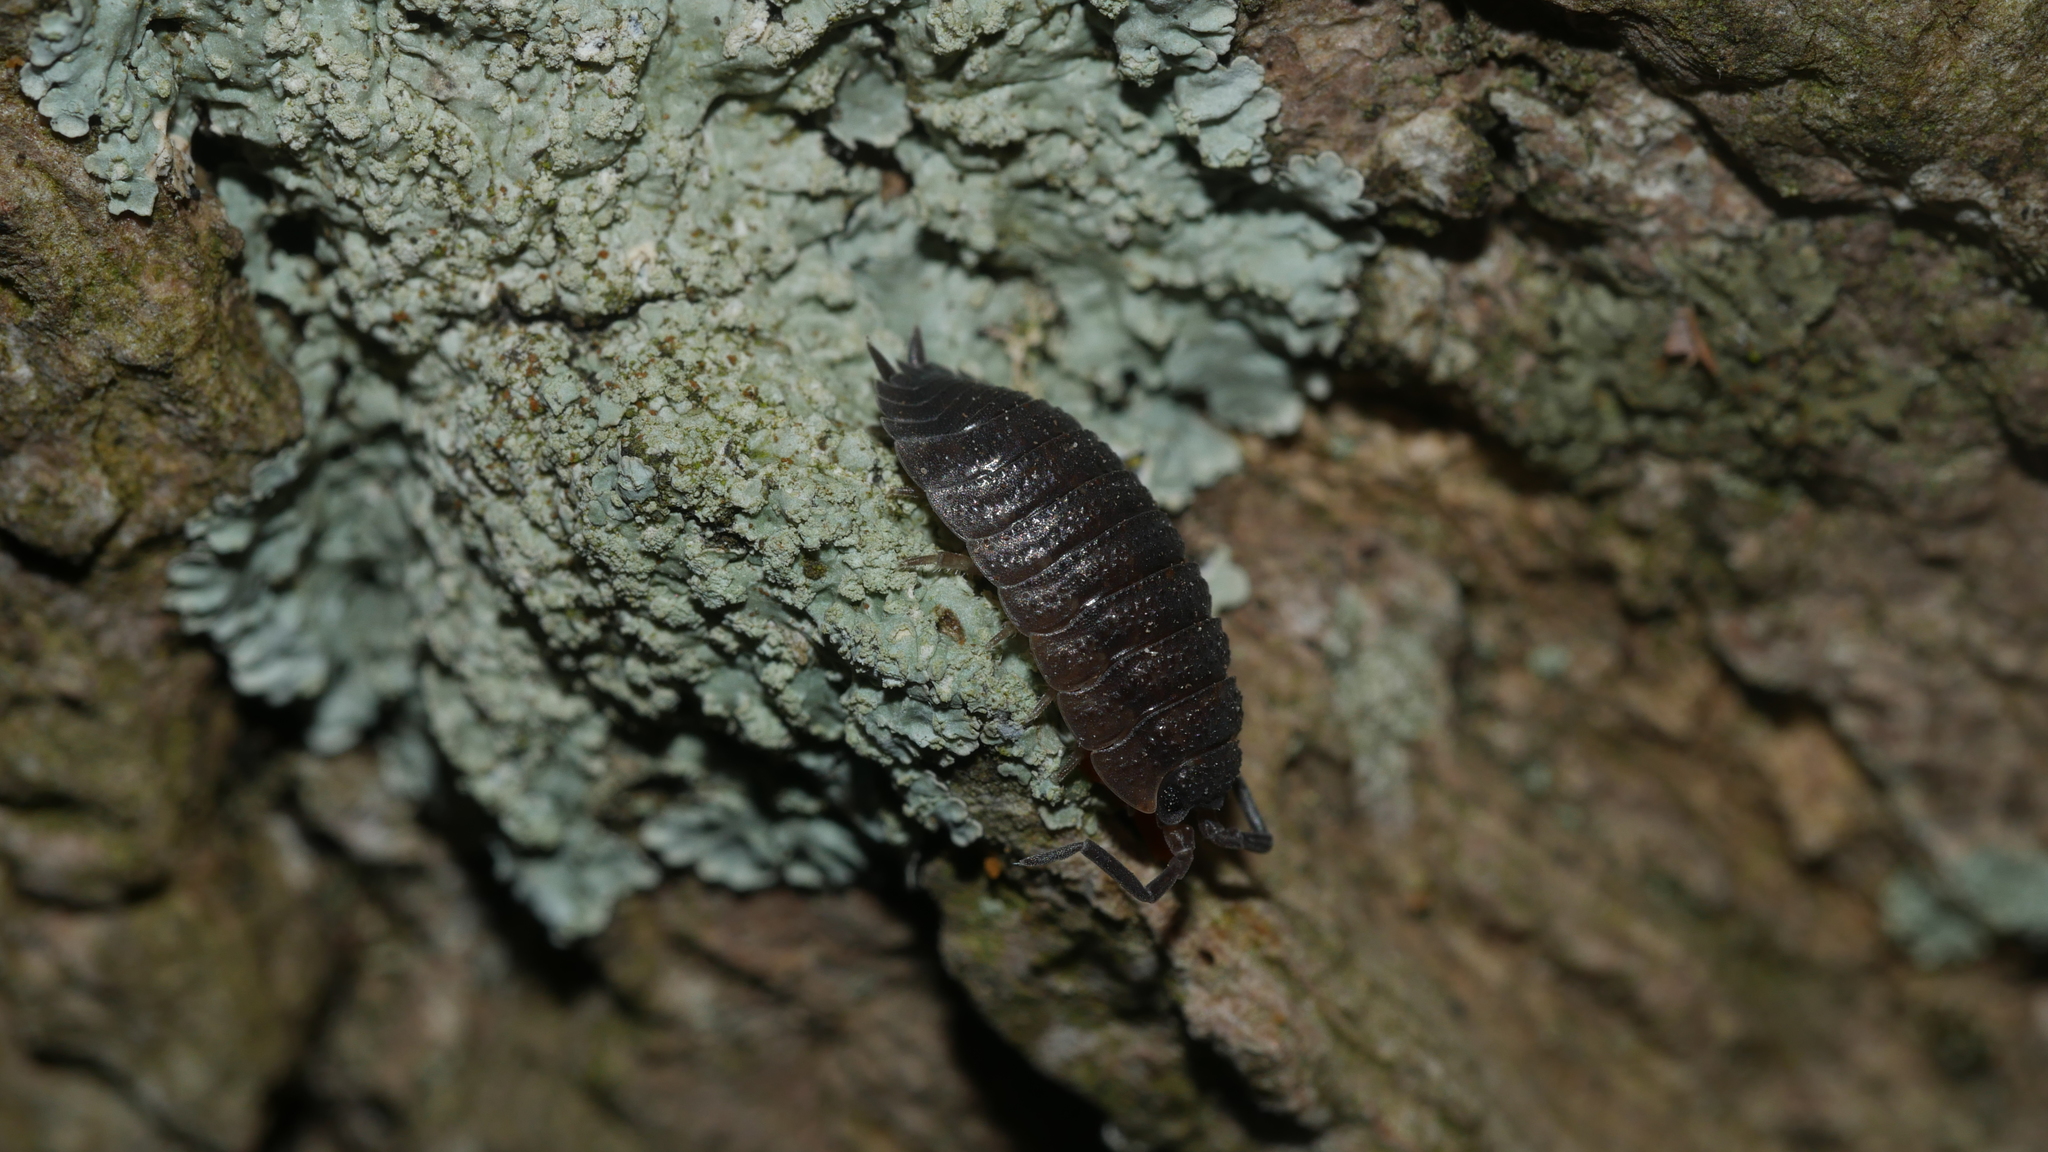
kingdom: Animalia
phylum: Arthropoda
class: Malacostraca
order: Isopoda
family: Porcellionidae
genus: Porcellio
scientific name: Porcellio scaber
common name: Common rough woodlouse
